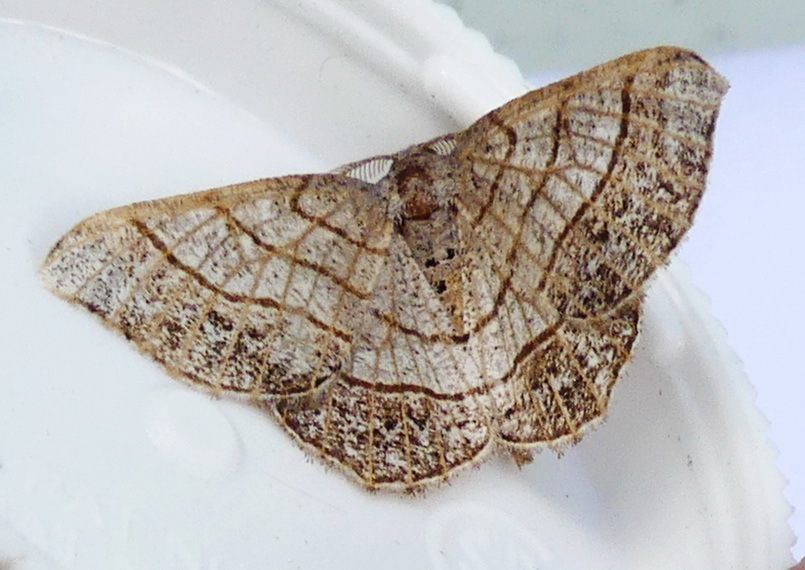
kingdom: Animalia
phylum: Arthropoda
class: Insecta
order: Lepidoptera
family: Geometridae
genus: Eumacaria
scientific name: Eumacaria madopata
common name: Brown-bordered geometer
